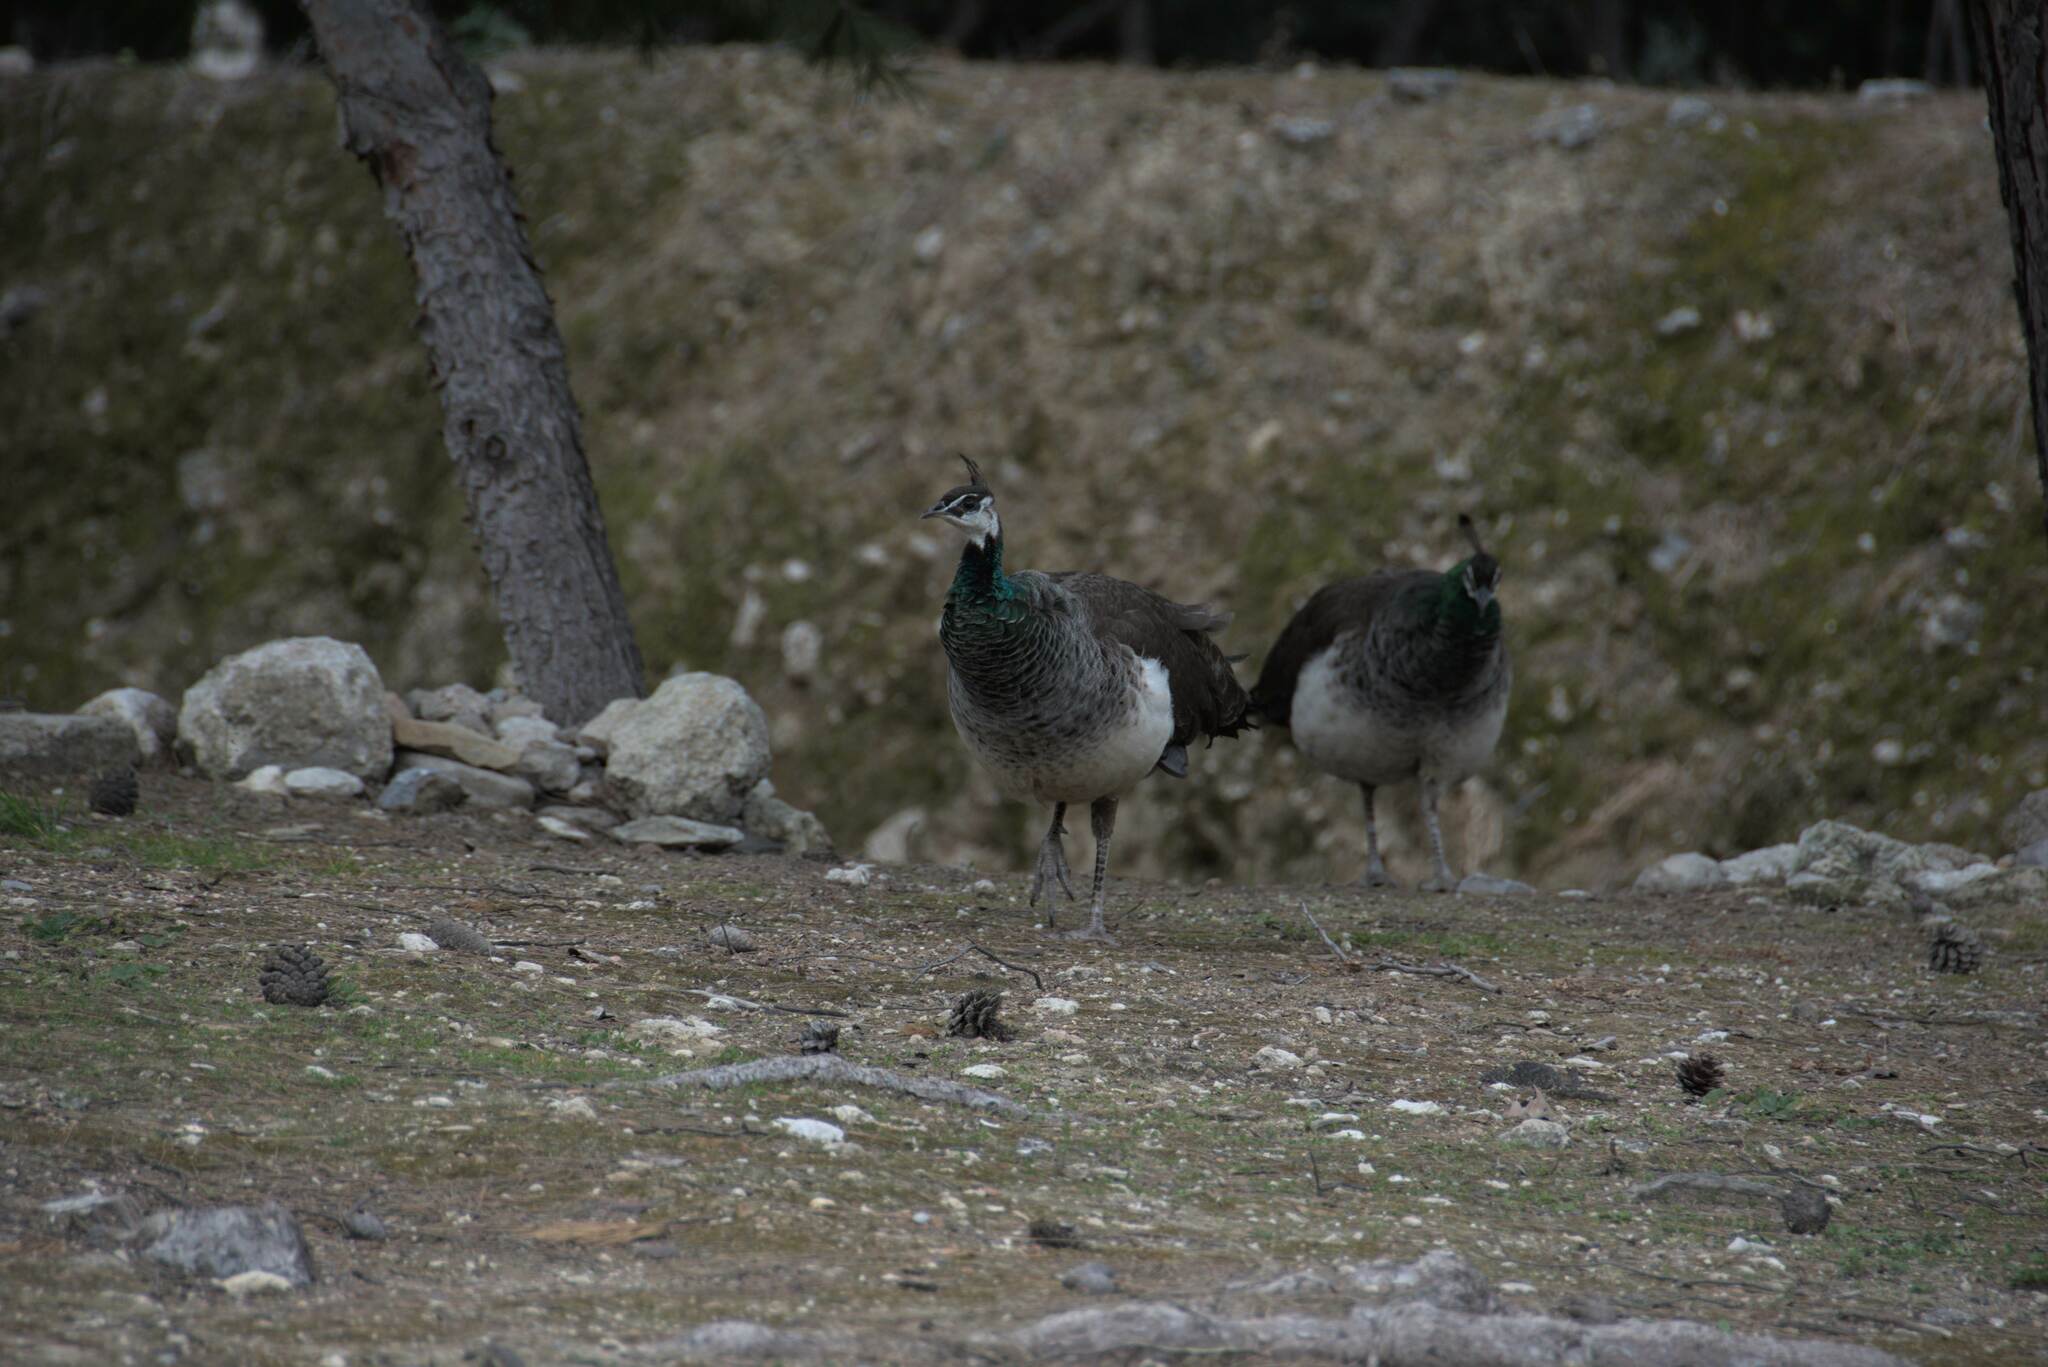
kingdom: Animalia
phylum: Chordata
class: Aves
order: Galliformes
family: Phasianidae
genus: Pavo
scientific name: Pavo cristatus
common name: Indian peafowl
